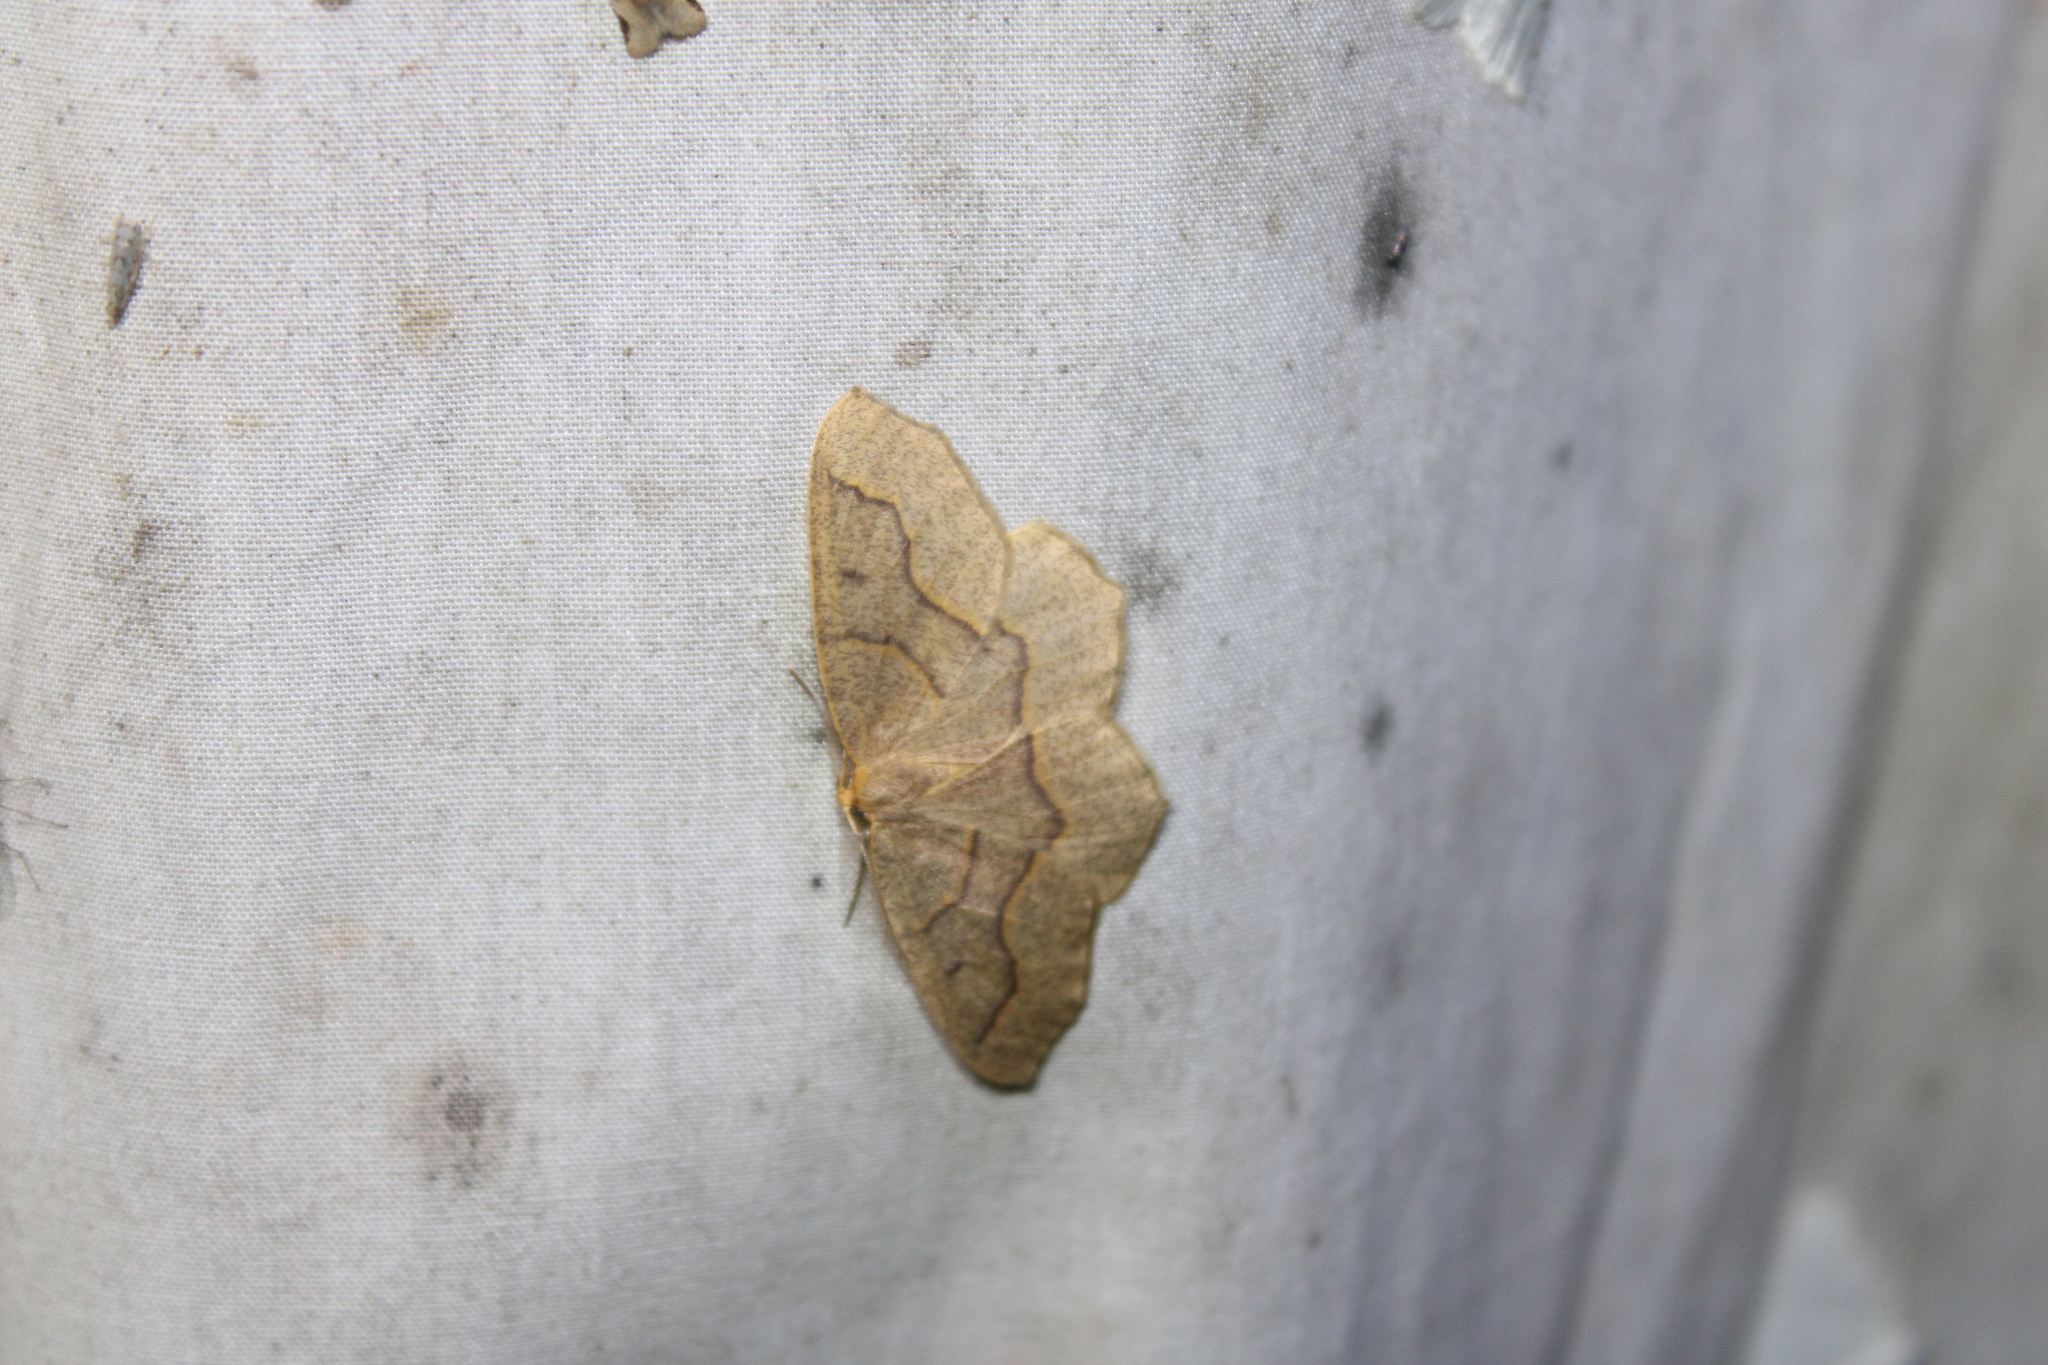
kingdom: Animalia
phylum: Arthropoda
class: Insecta
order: Lepidoptera
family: Geometridae
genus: Lambdina
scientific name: Lambdina fiscellaria
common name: Hemlock looper
